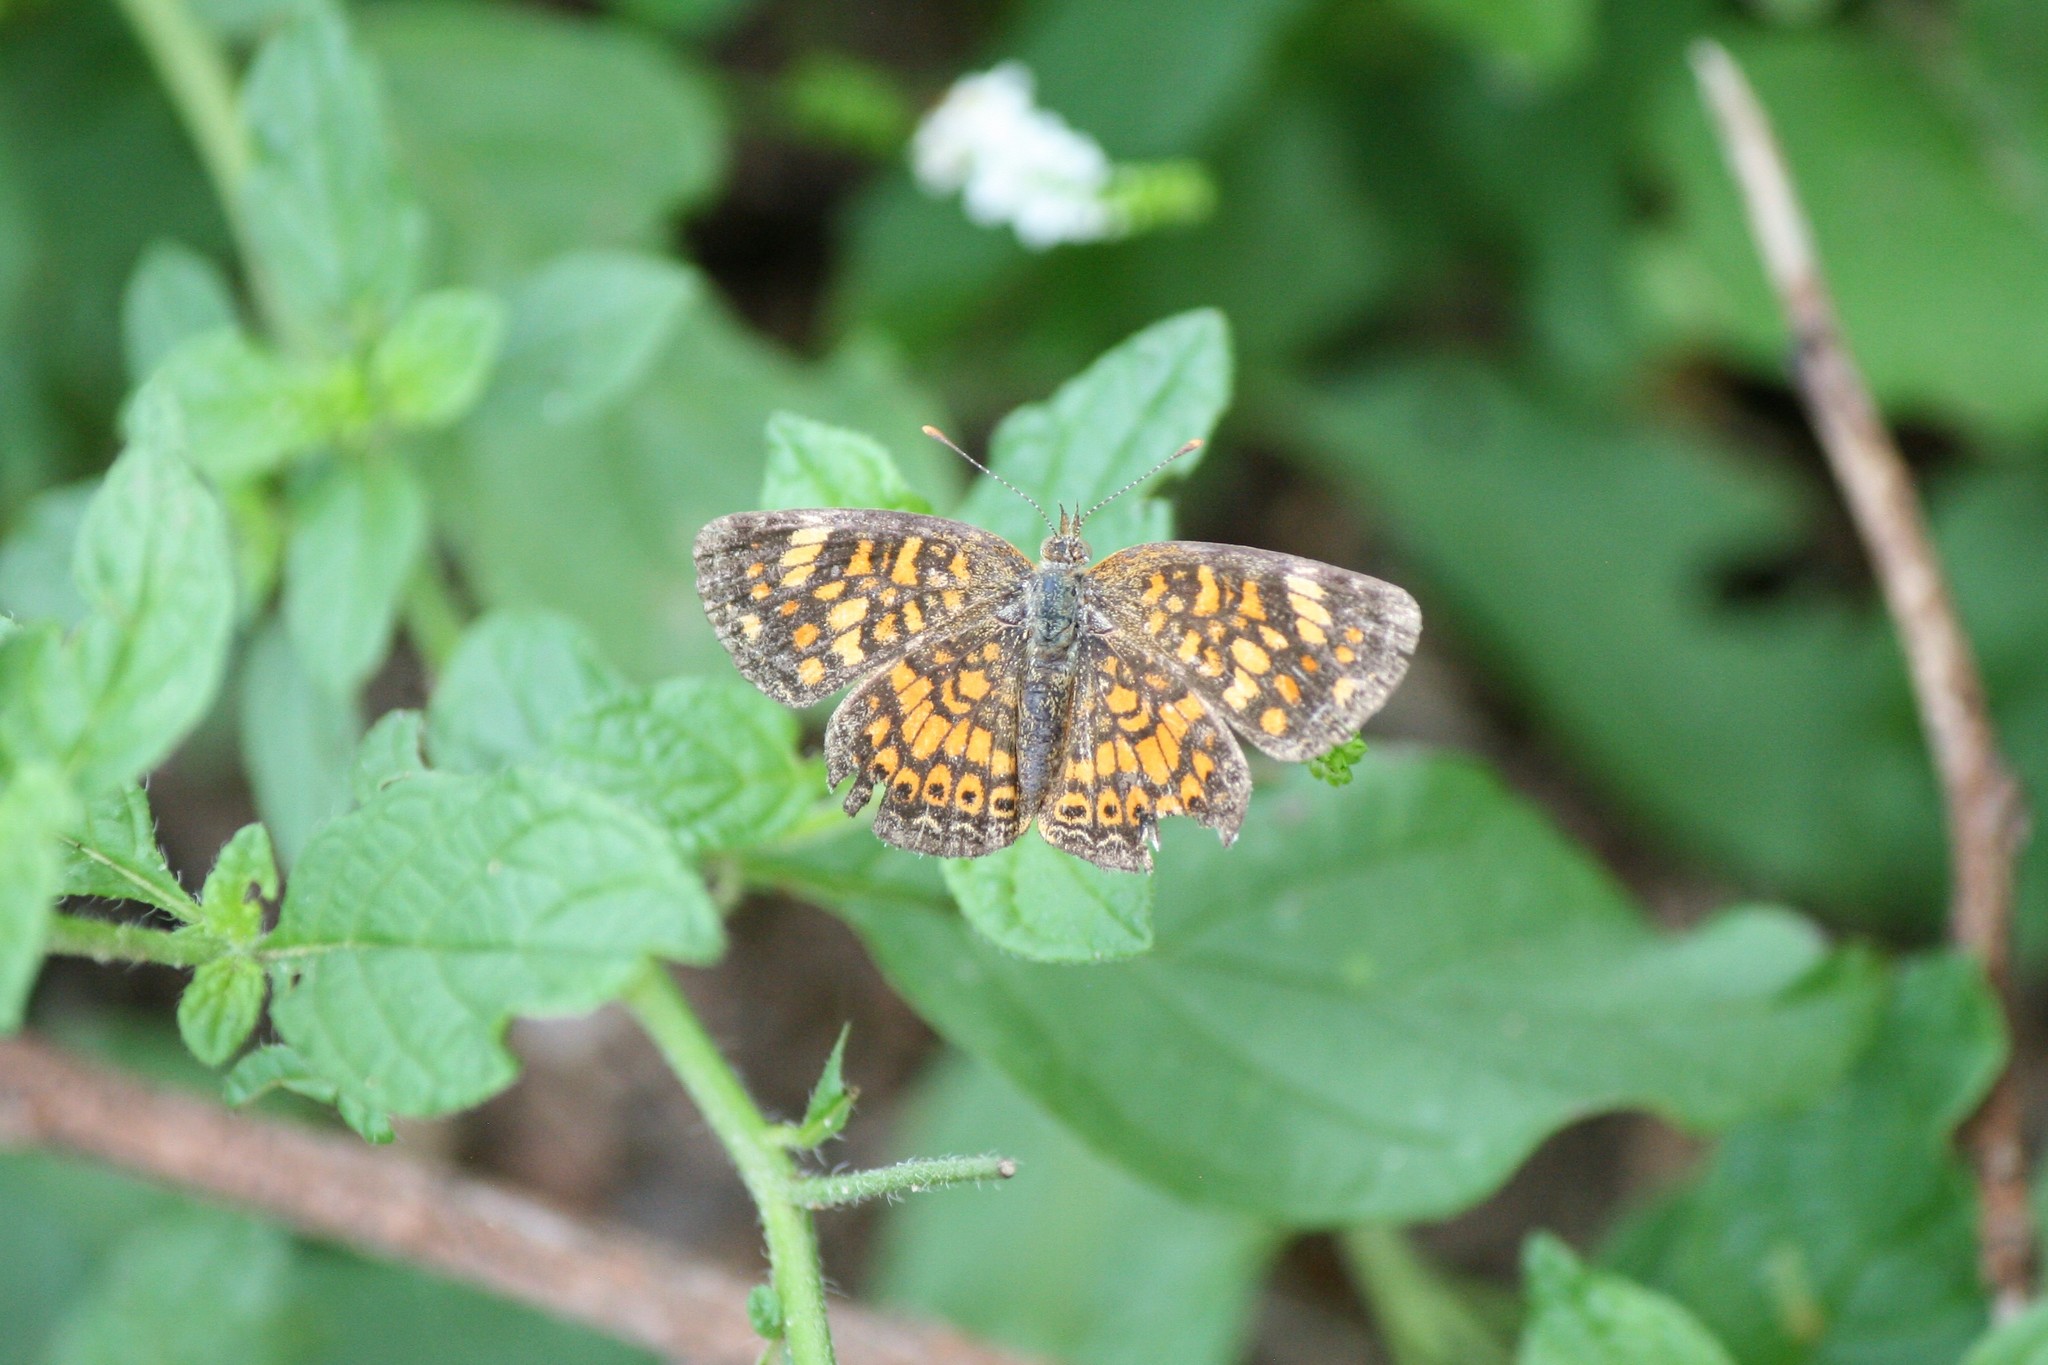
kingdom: Animalia
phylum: Arthropoda
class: Insecta
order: Lepidoptera
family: Nymphalidae
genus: Phyciodes
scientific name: Phyciodes vesta
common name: Vesta crescent
